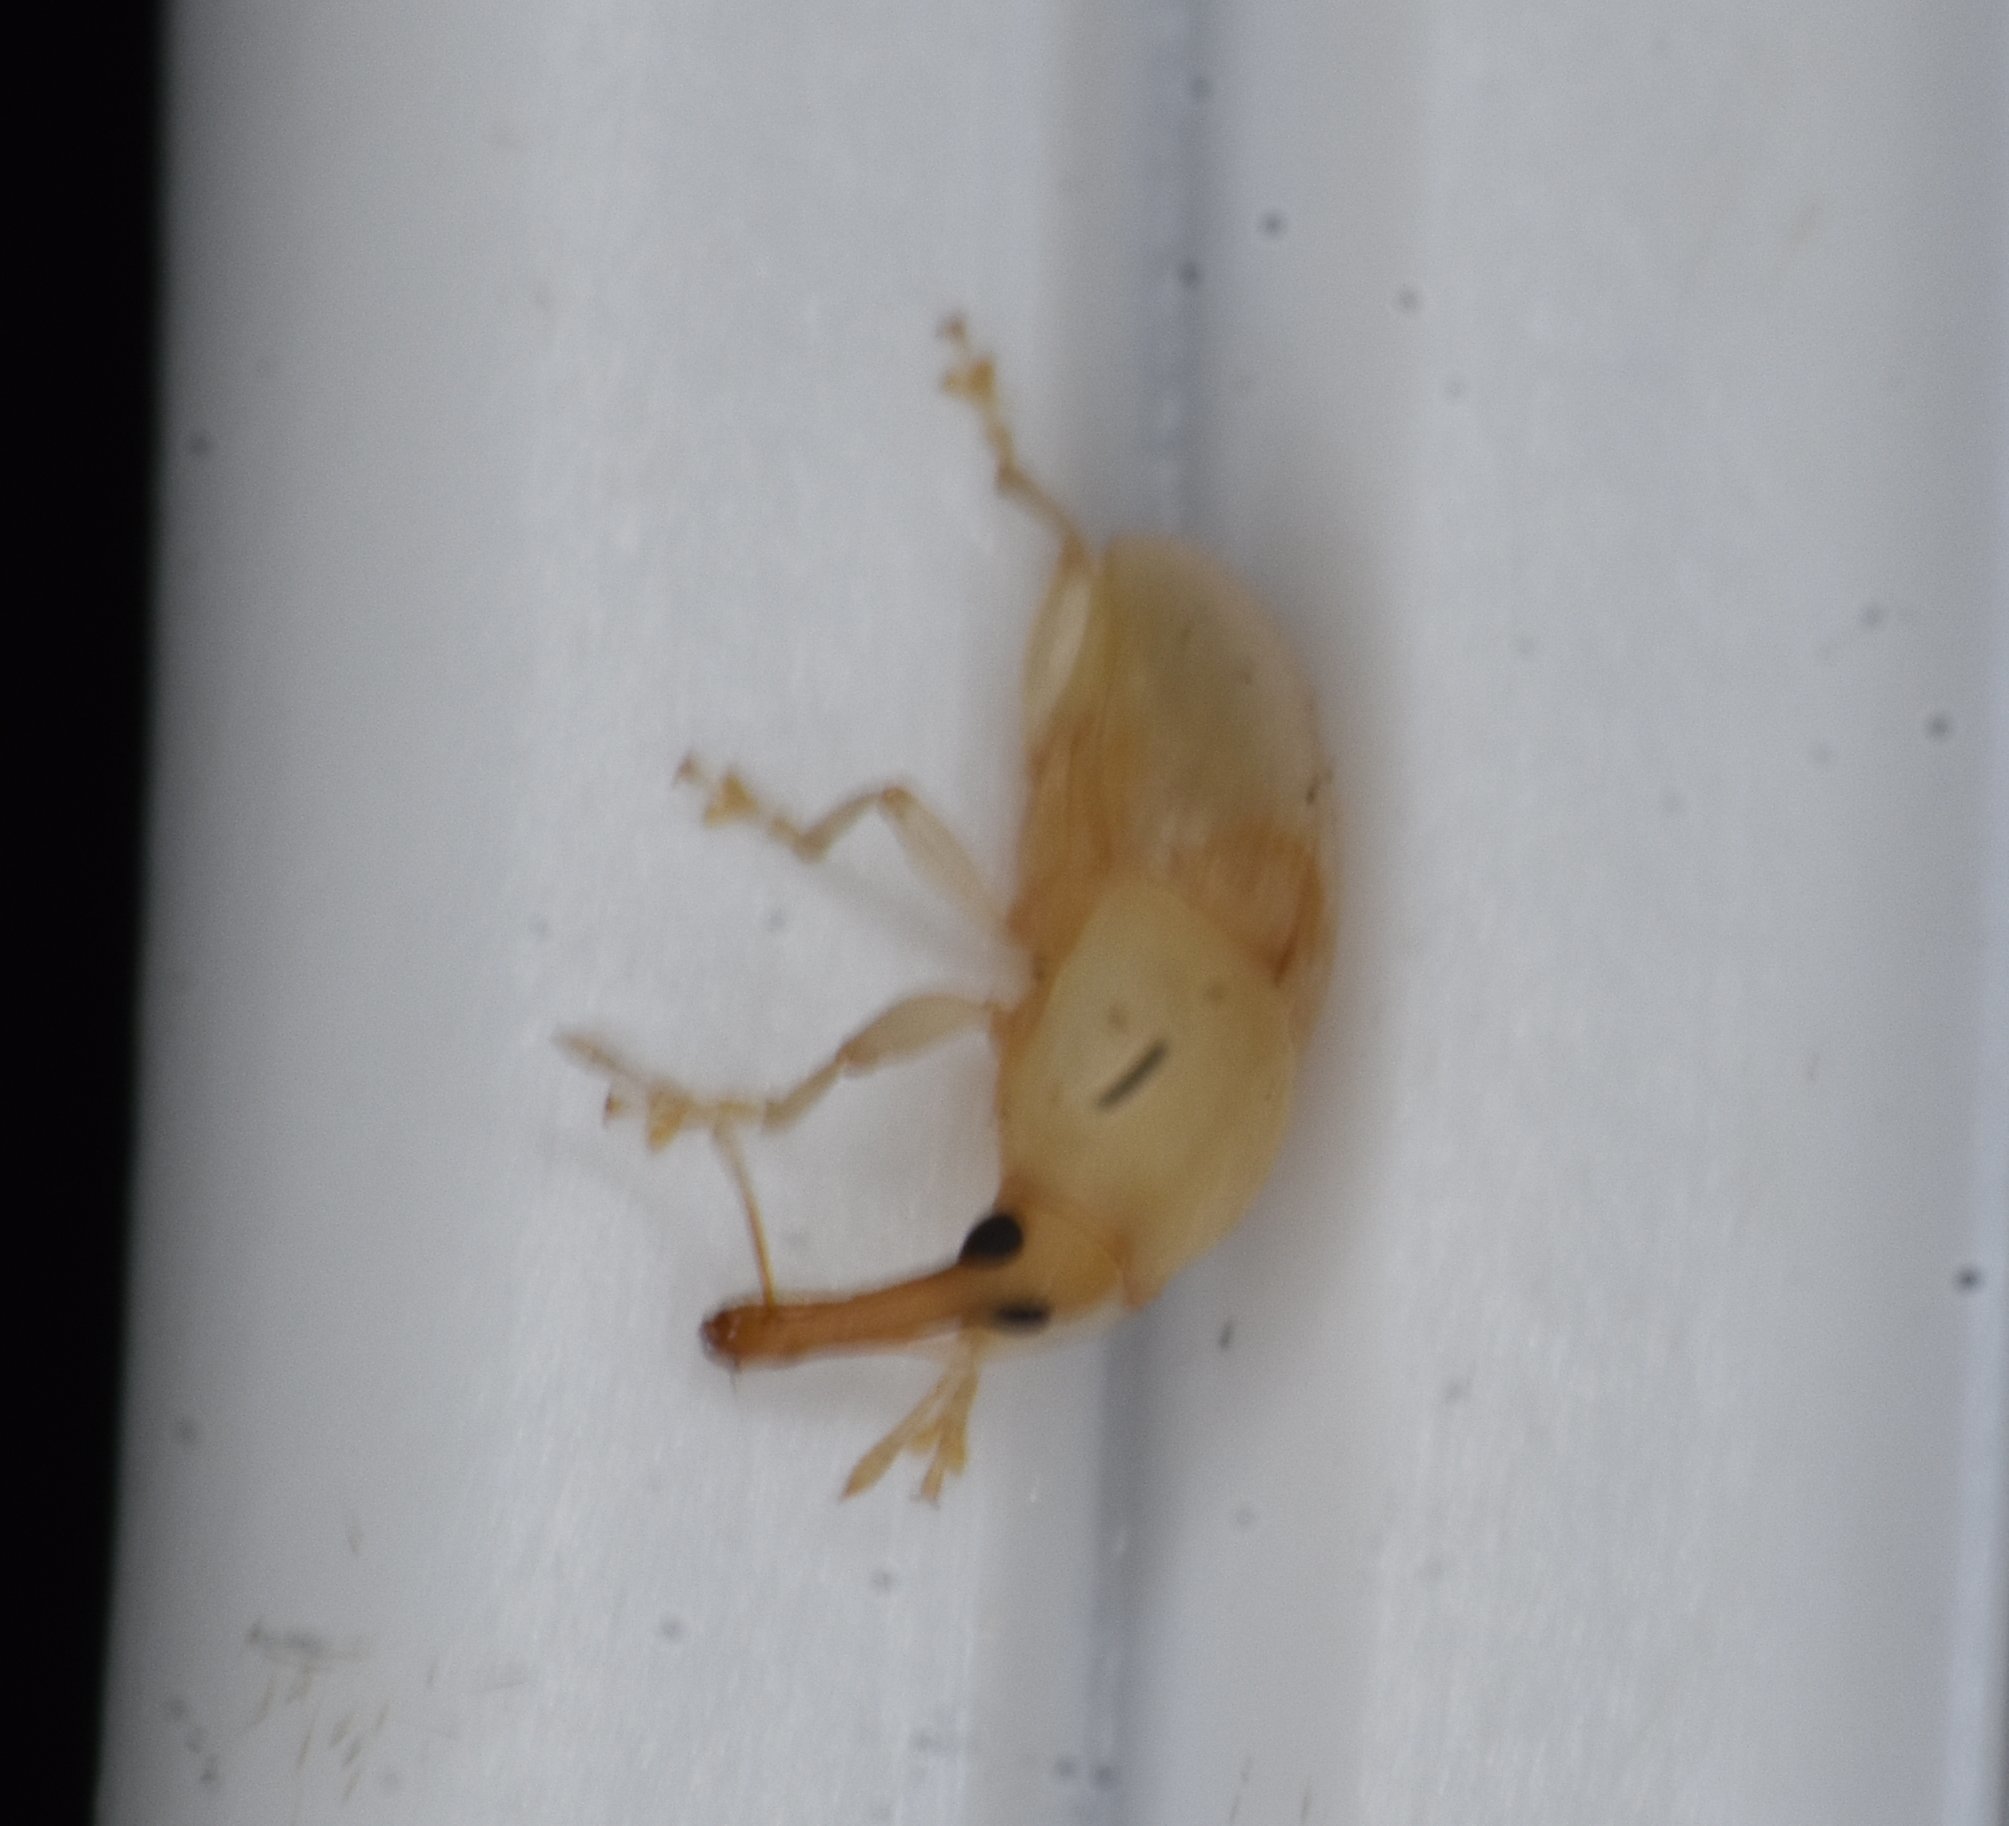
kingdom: Animalia
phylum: Arthropoda
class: Insecta
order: Coleoptera
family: Curculionidae
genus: Notolomus
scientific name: Notolomus basalis
